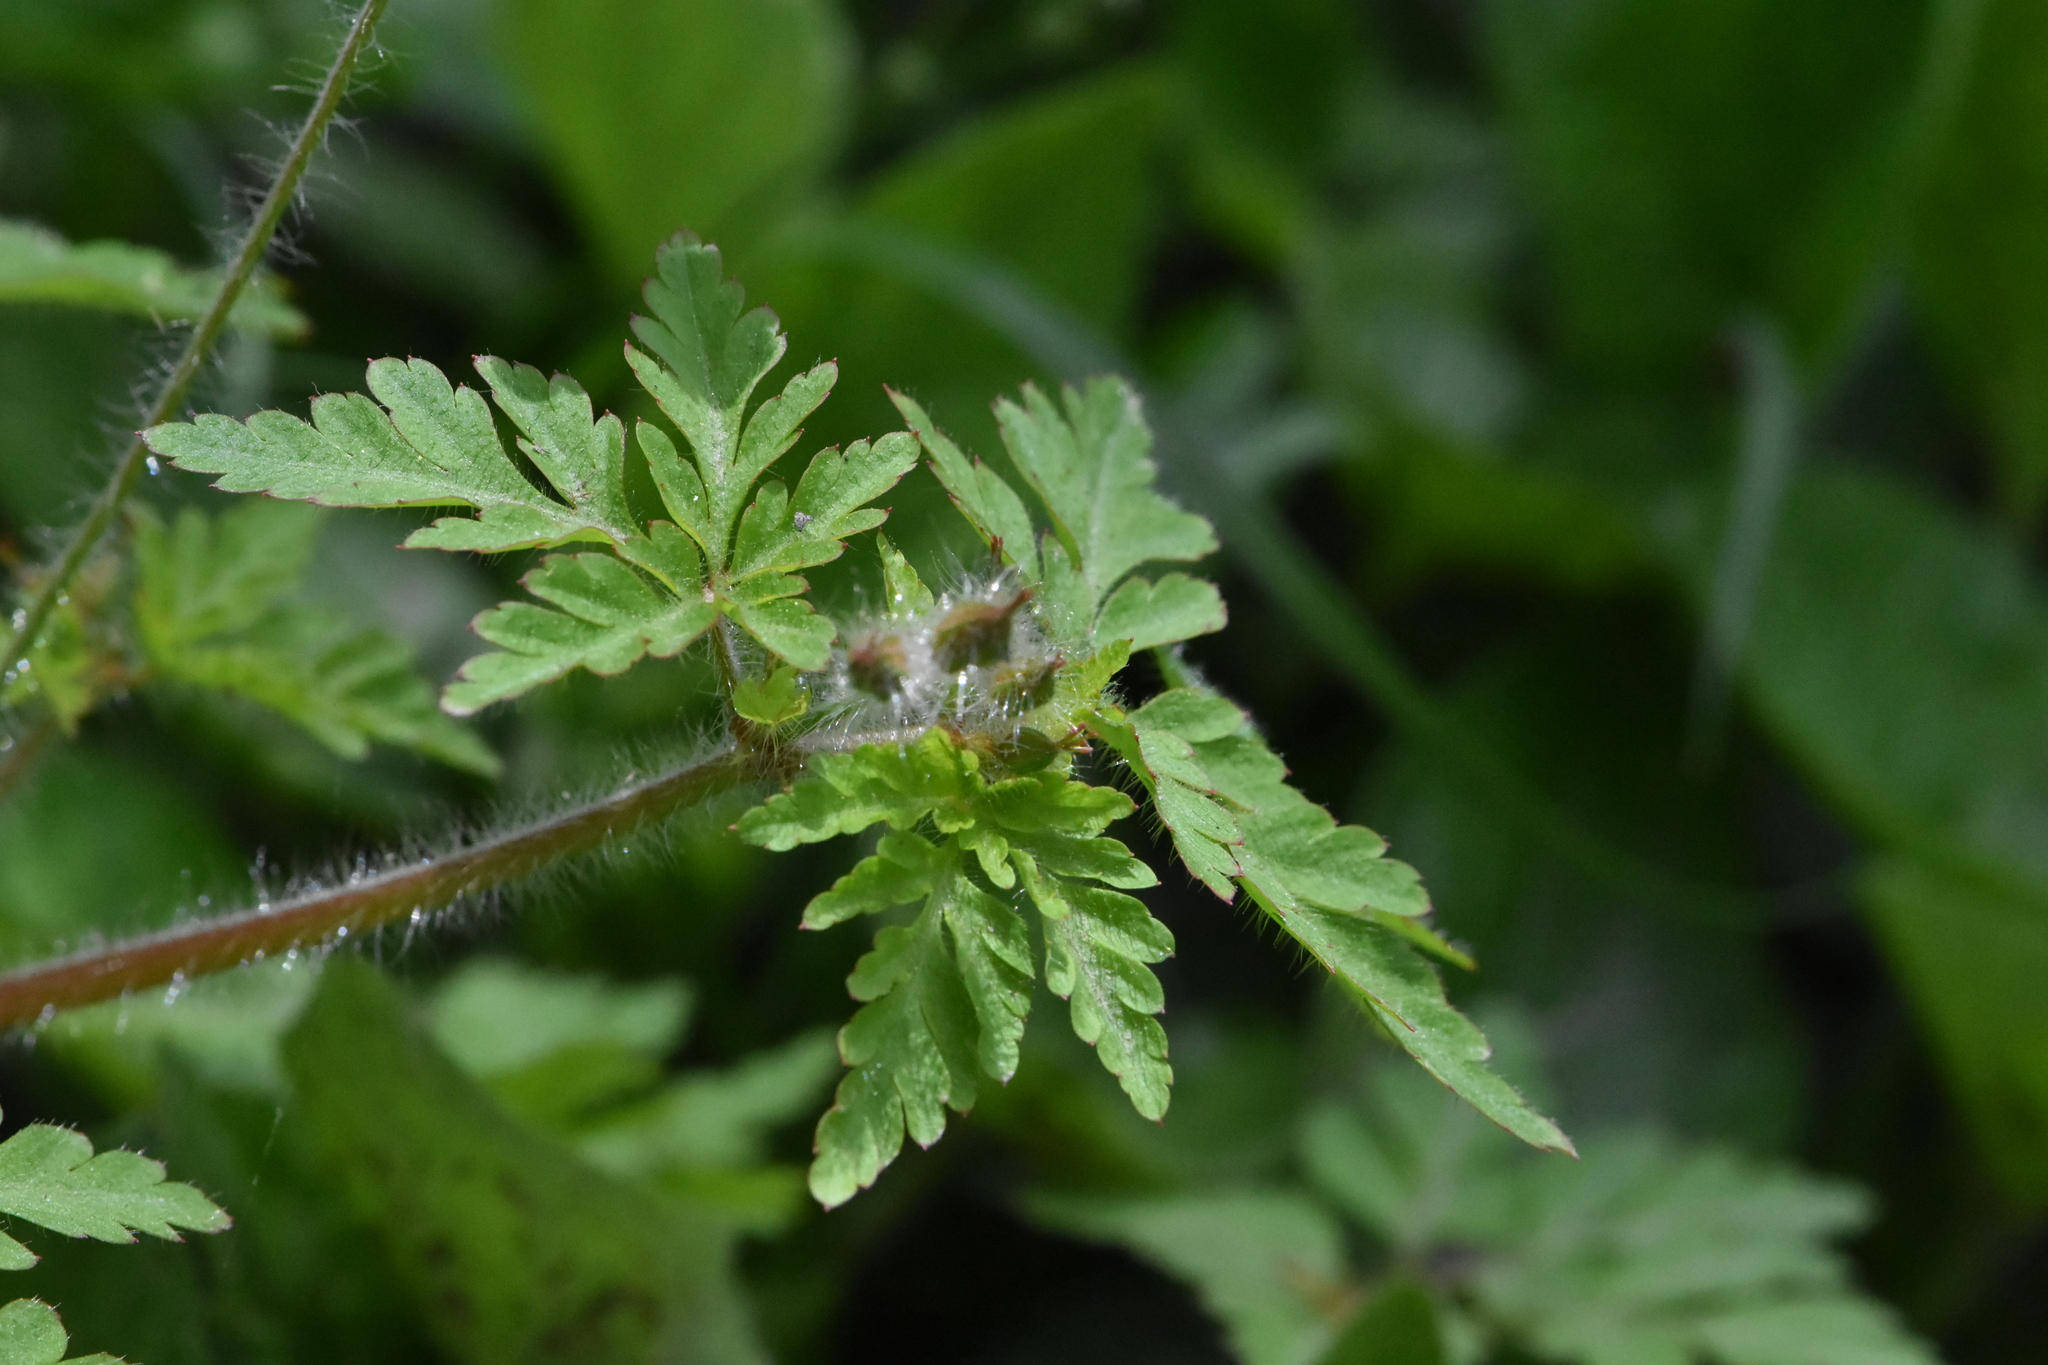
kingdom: Plantae
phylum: Tracheophyta
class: Magnoliopsida
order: Geraniales
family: Geraniaceae
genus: Geranium
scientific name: Geranium robertianum
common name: Herb-robert
